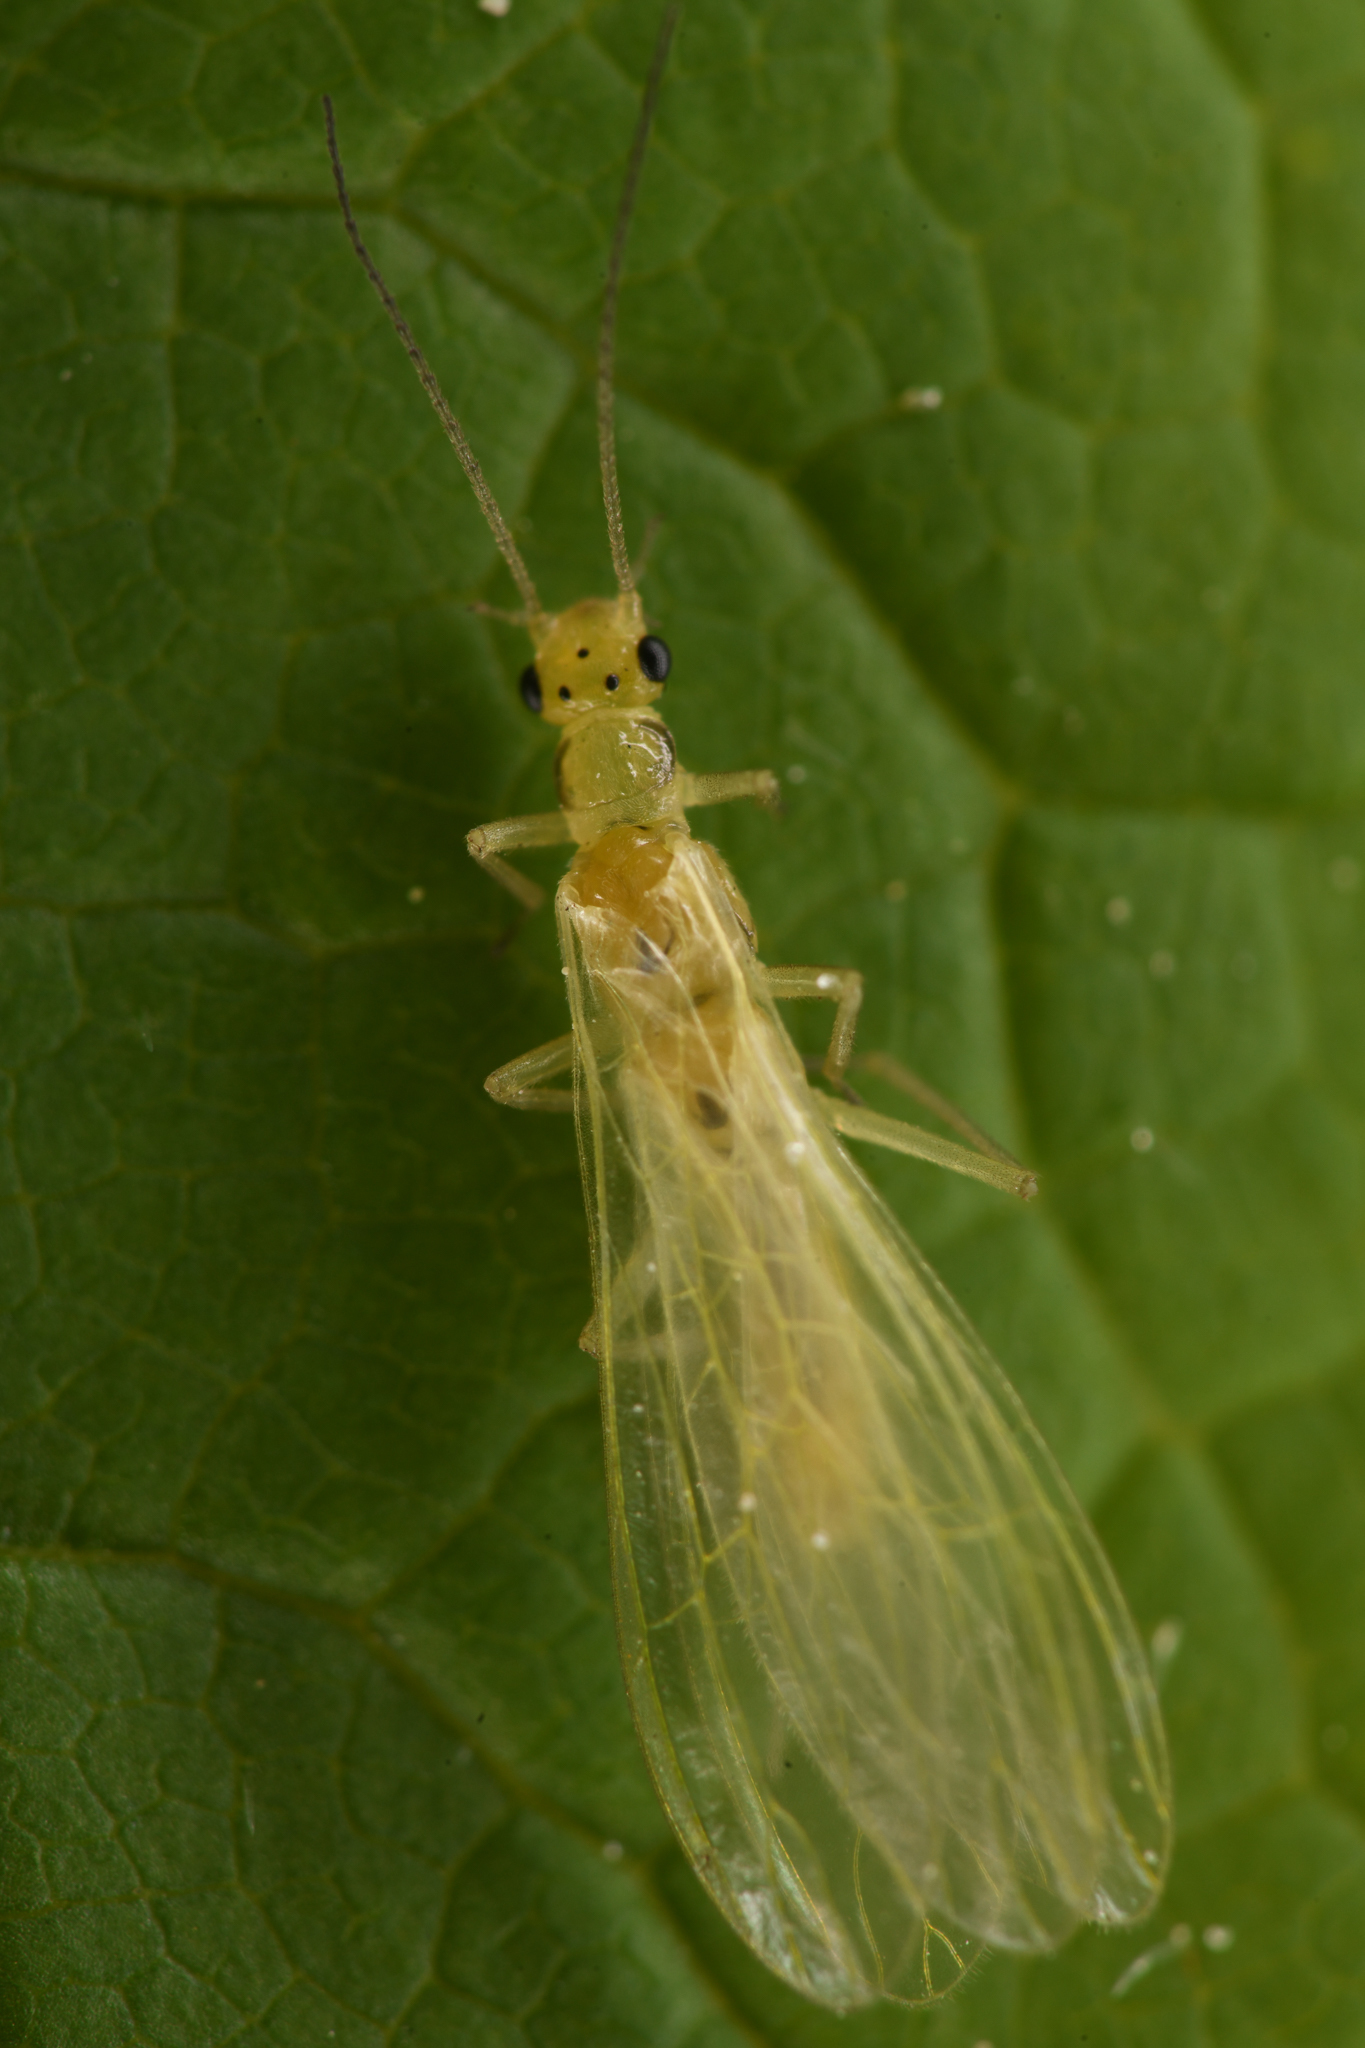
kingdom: Animalia
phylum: Arthropoda
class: Insecta
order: Plecoptera
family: Chloroperlidae
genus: Plumiperla
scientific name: Plumiperla diversa
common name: Margined sallfly
